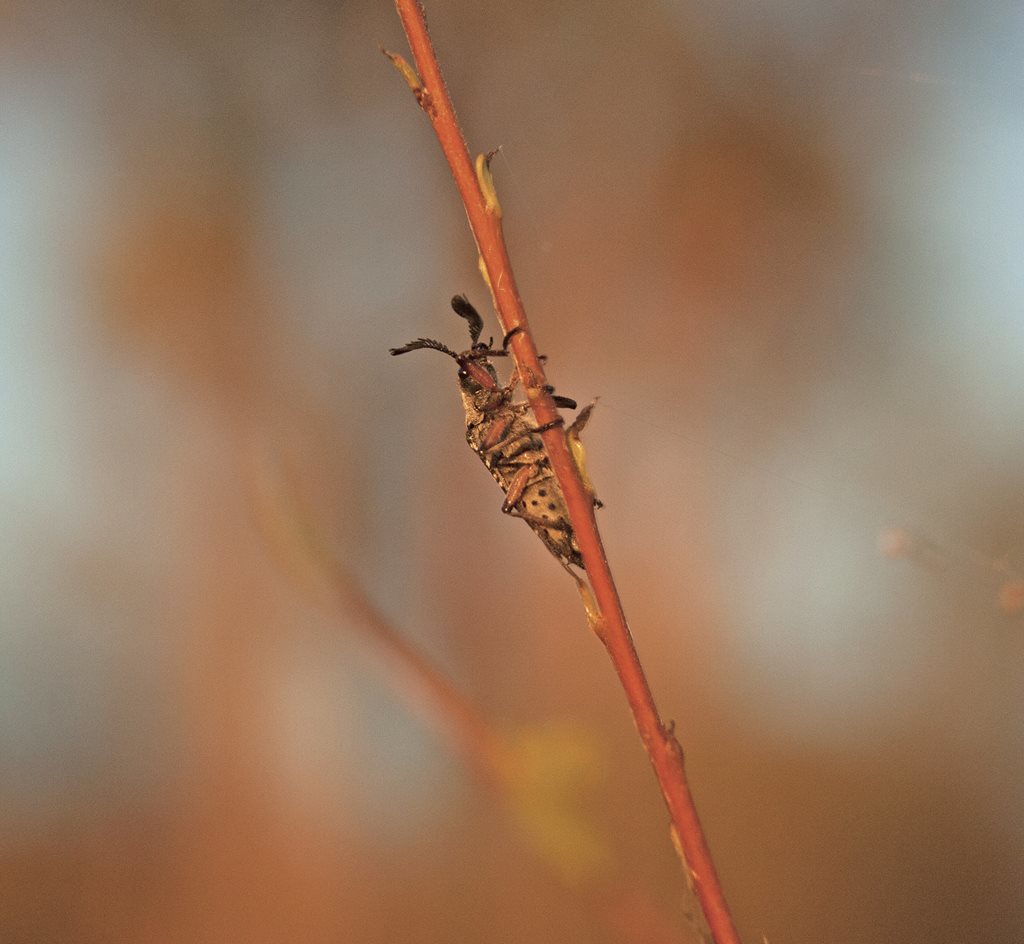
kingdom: Animalia
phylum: Arthropoda
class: Insecta
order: Coleoptera
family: Rhipiceridae
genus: Rhipicera
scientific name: Rhipicera
